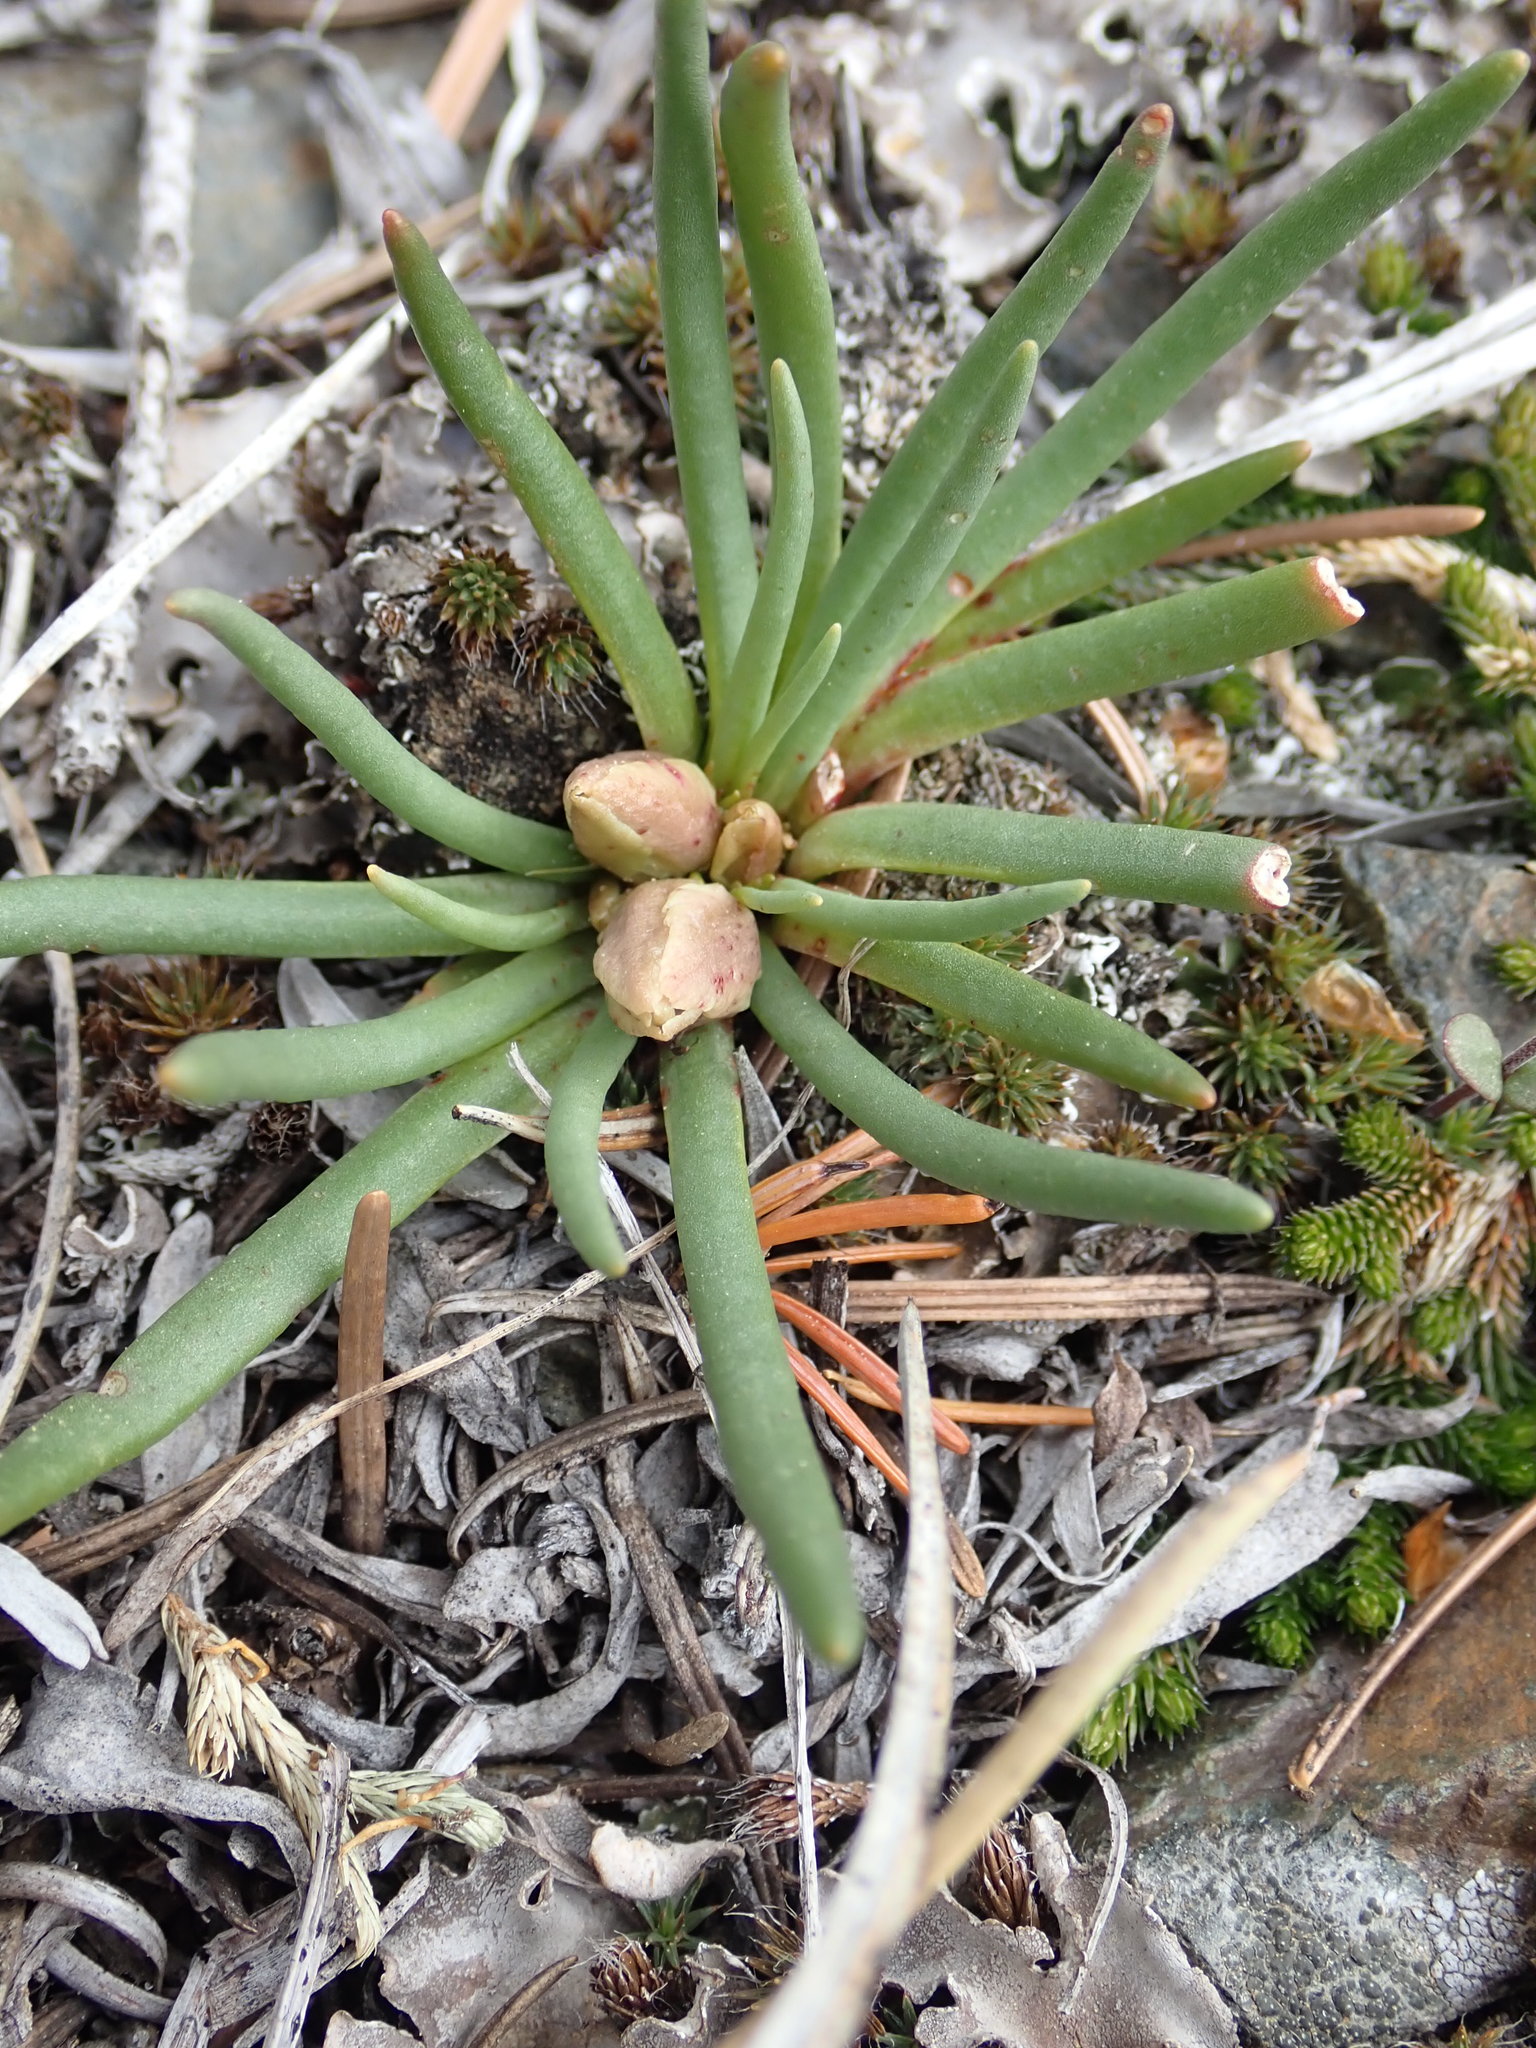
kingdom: Plantae
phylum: Tracheophyta
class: Magnoliopsida
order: Caryophyllales
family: Montiaceae
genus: Lewisia
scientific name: Lewisia rediviva
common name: Bitter-root
